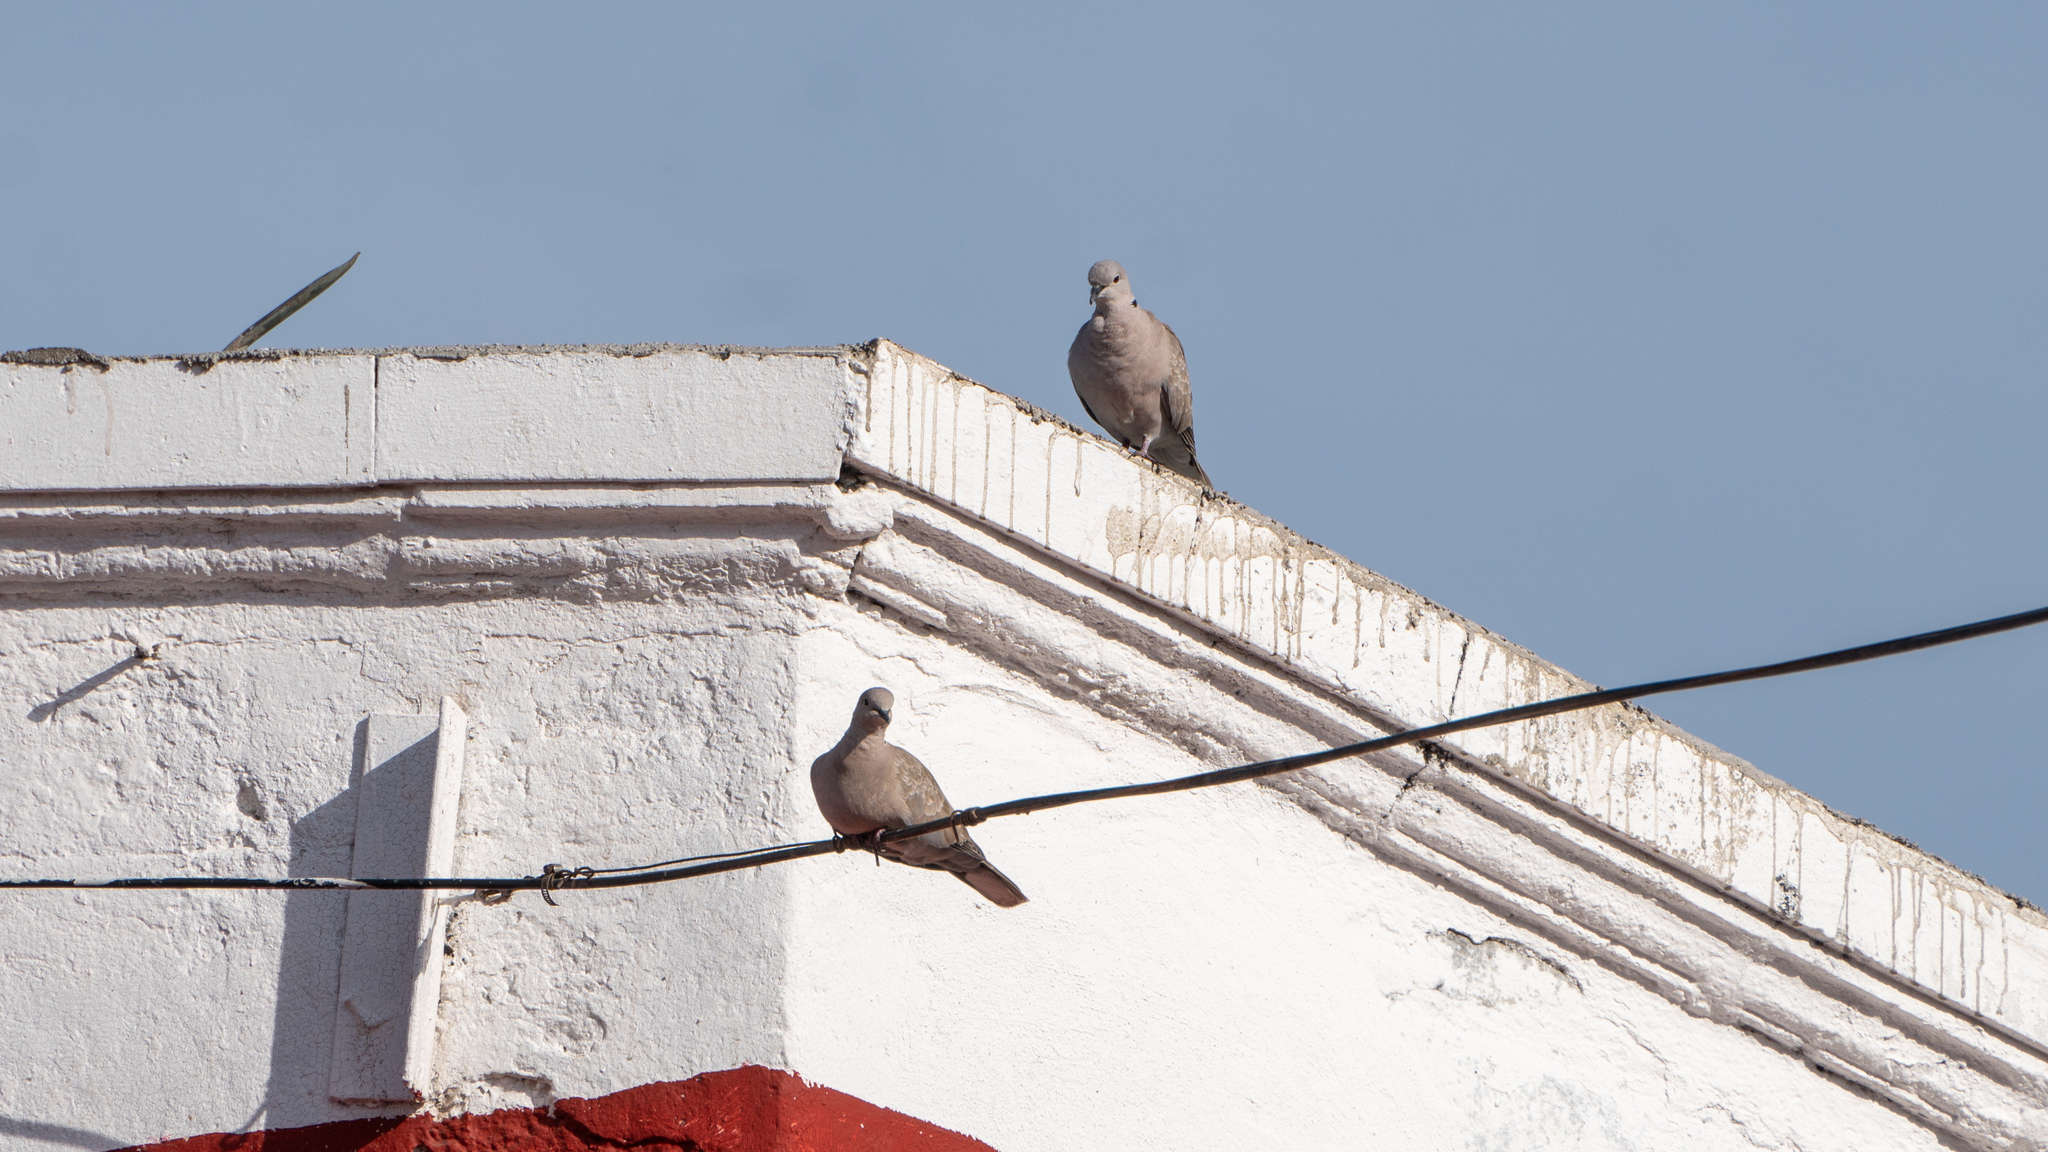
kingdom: Animalia
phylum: Chordata
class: Aves
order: Columbiformes
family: Columbidae
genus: Streptopelia
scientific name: Streptopelia decaocto
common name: Eurasian collared dove
